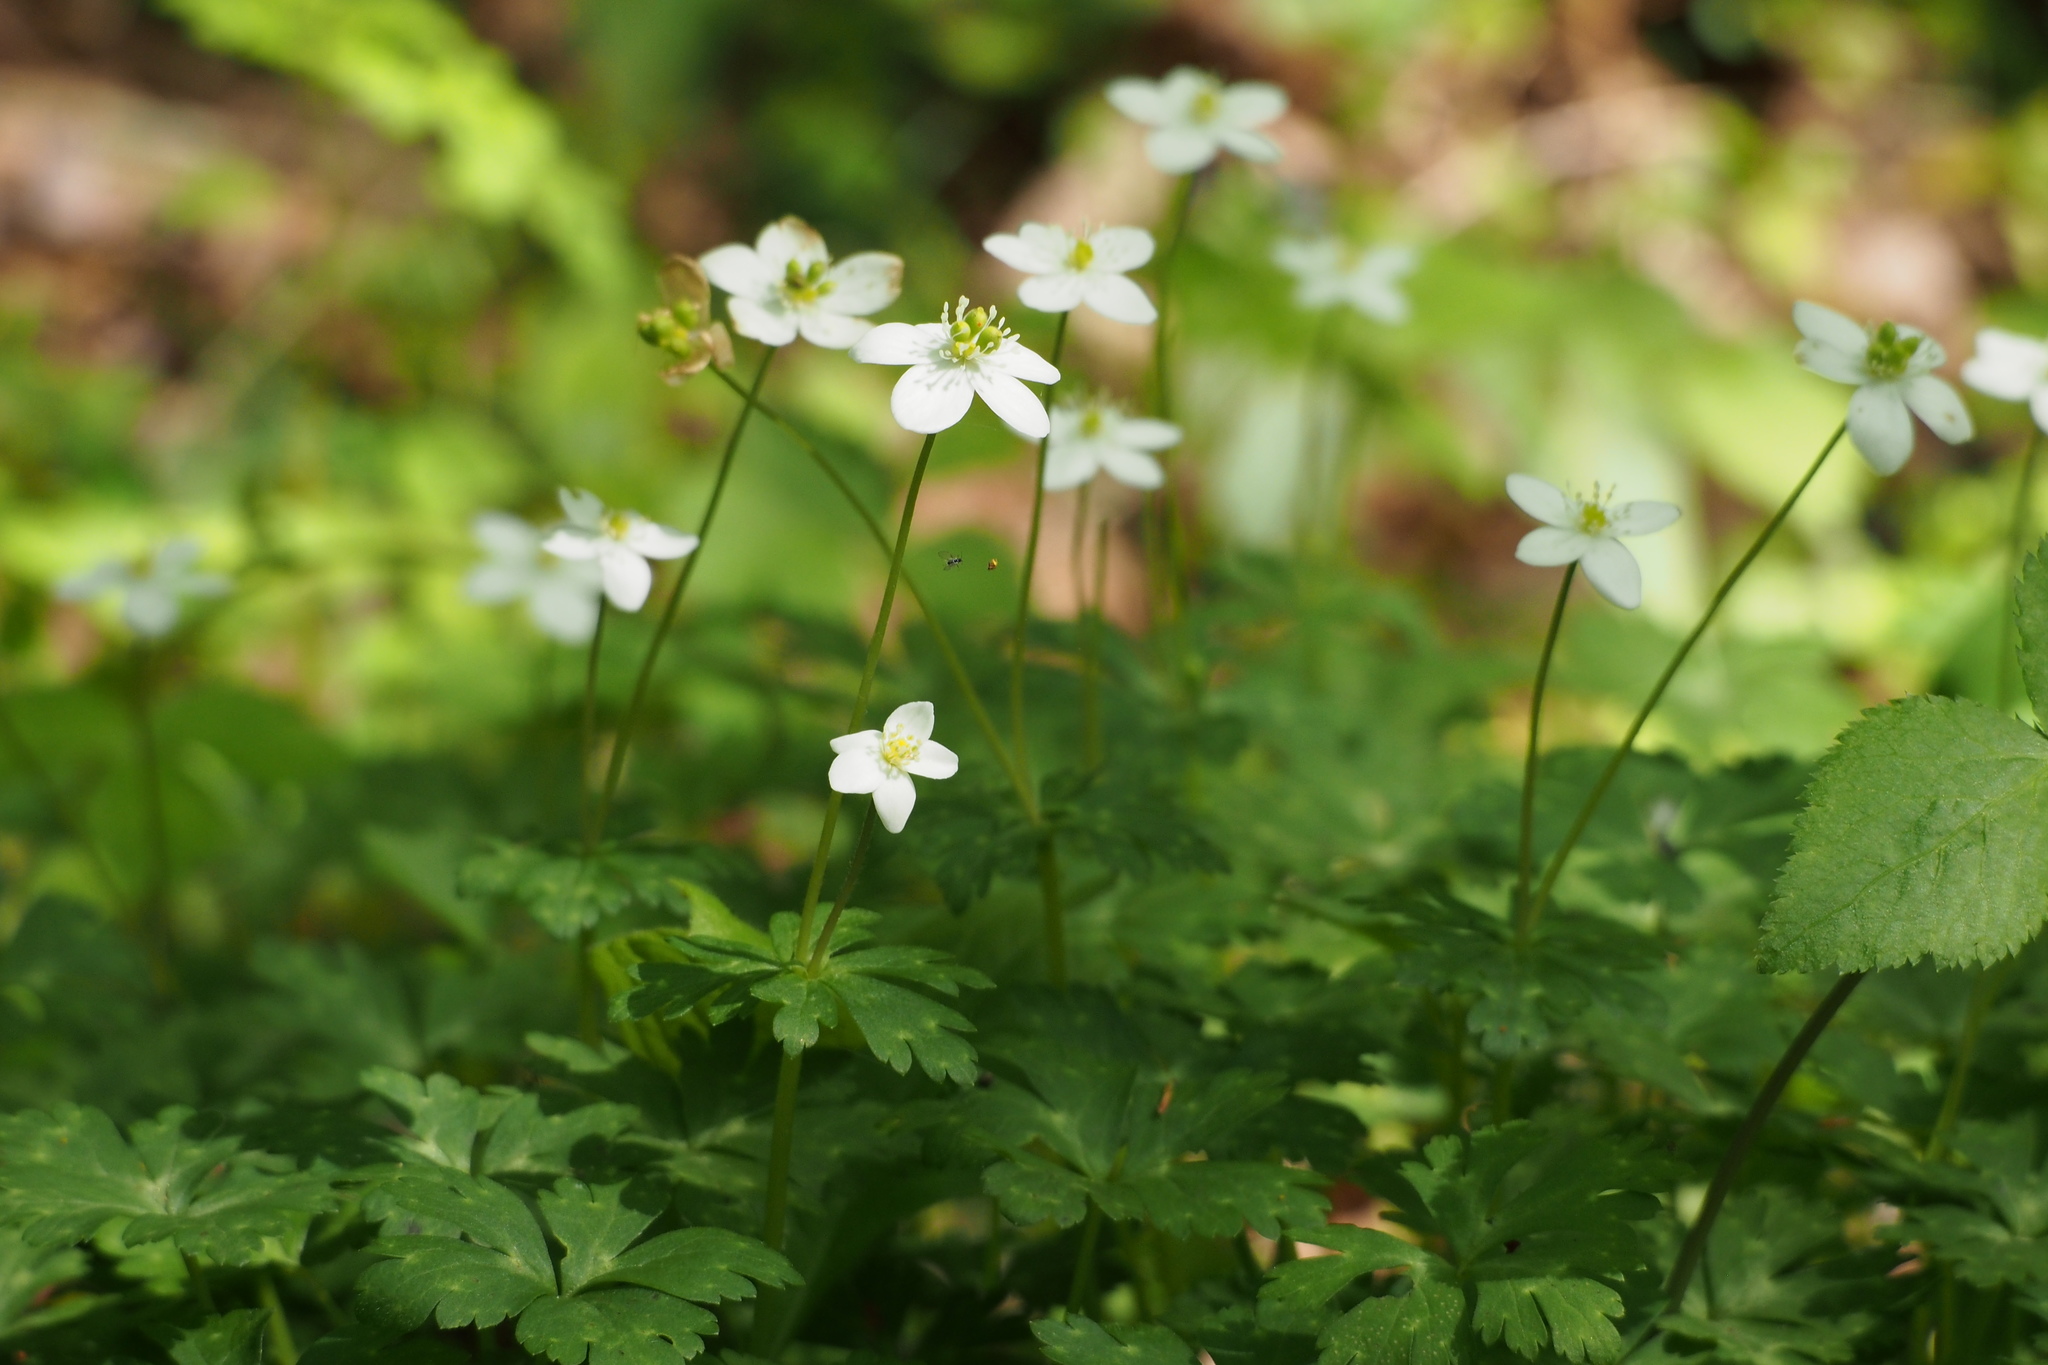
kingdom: Plantae
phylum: Tracheophyta
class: Magnoliopsida
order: Ranunculales
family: Ranunculaceae
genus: Anemonastrum
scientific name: Anemonastrum flaccidum
